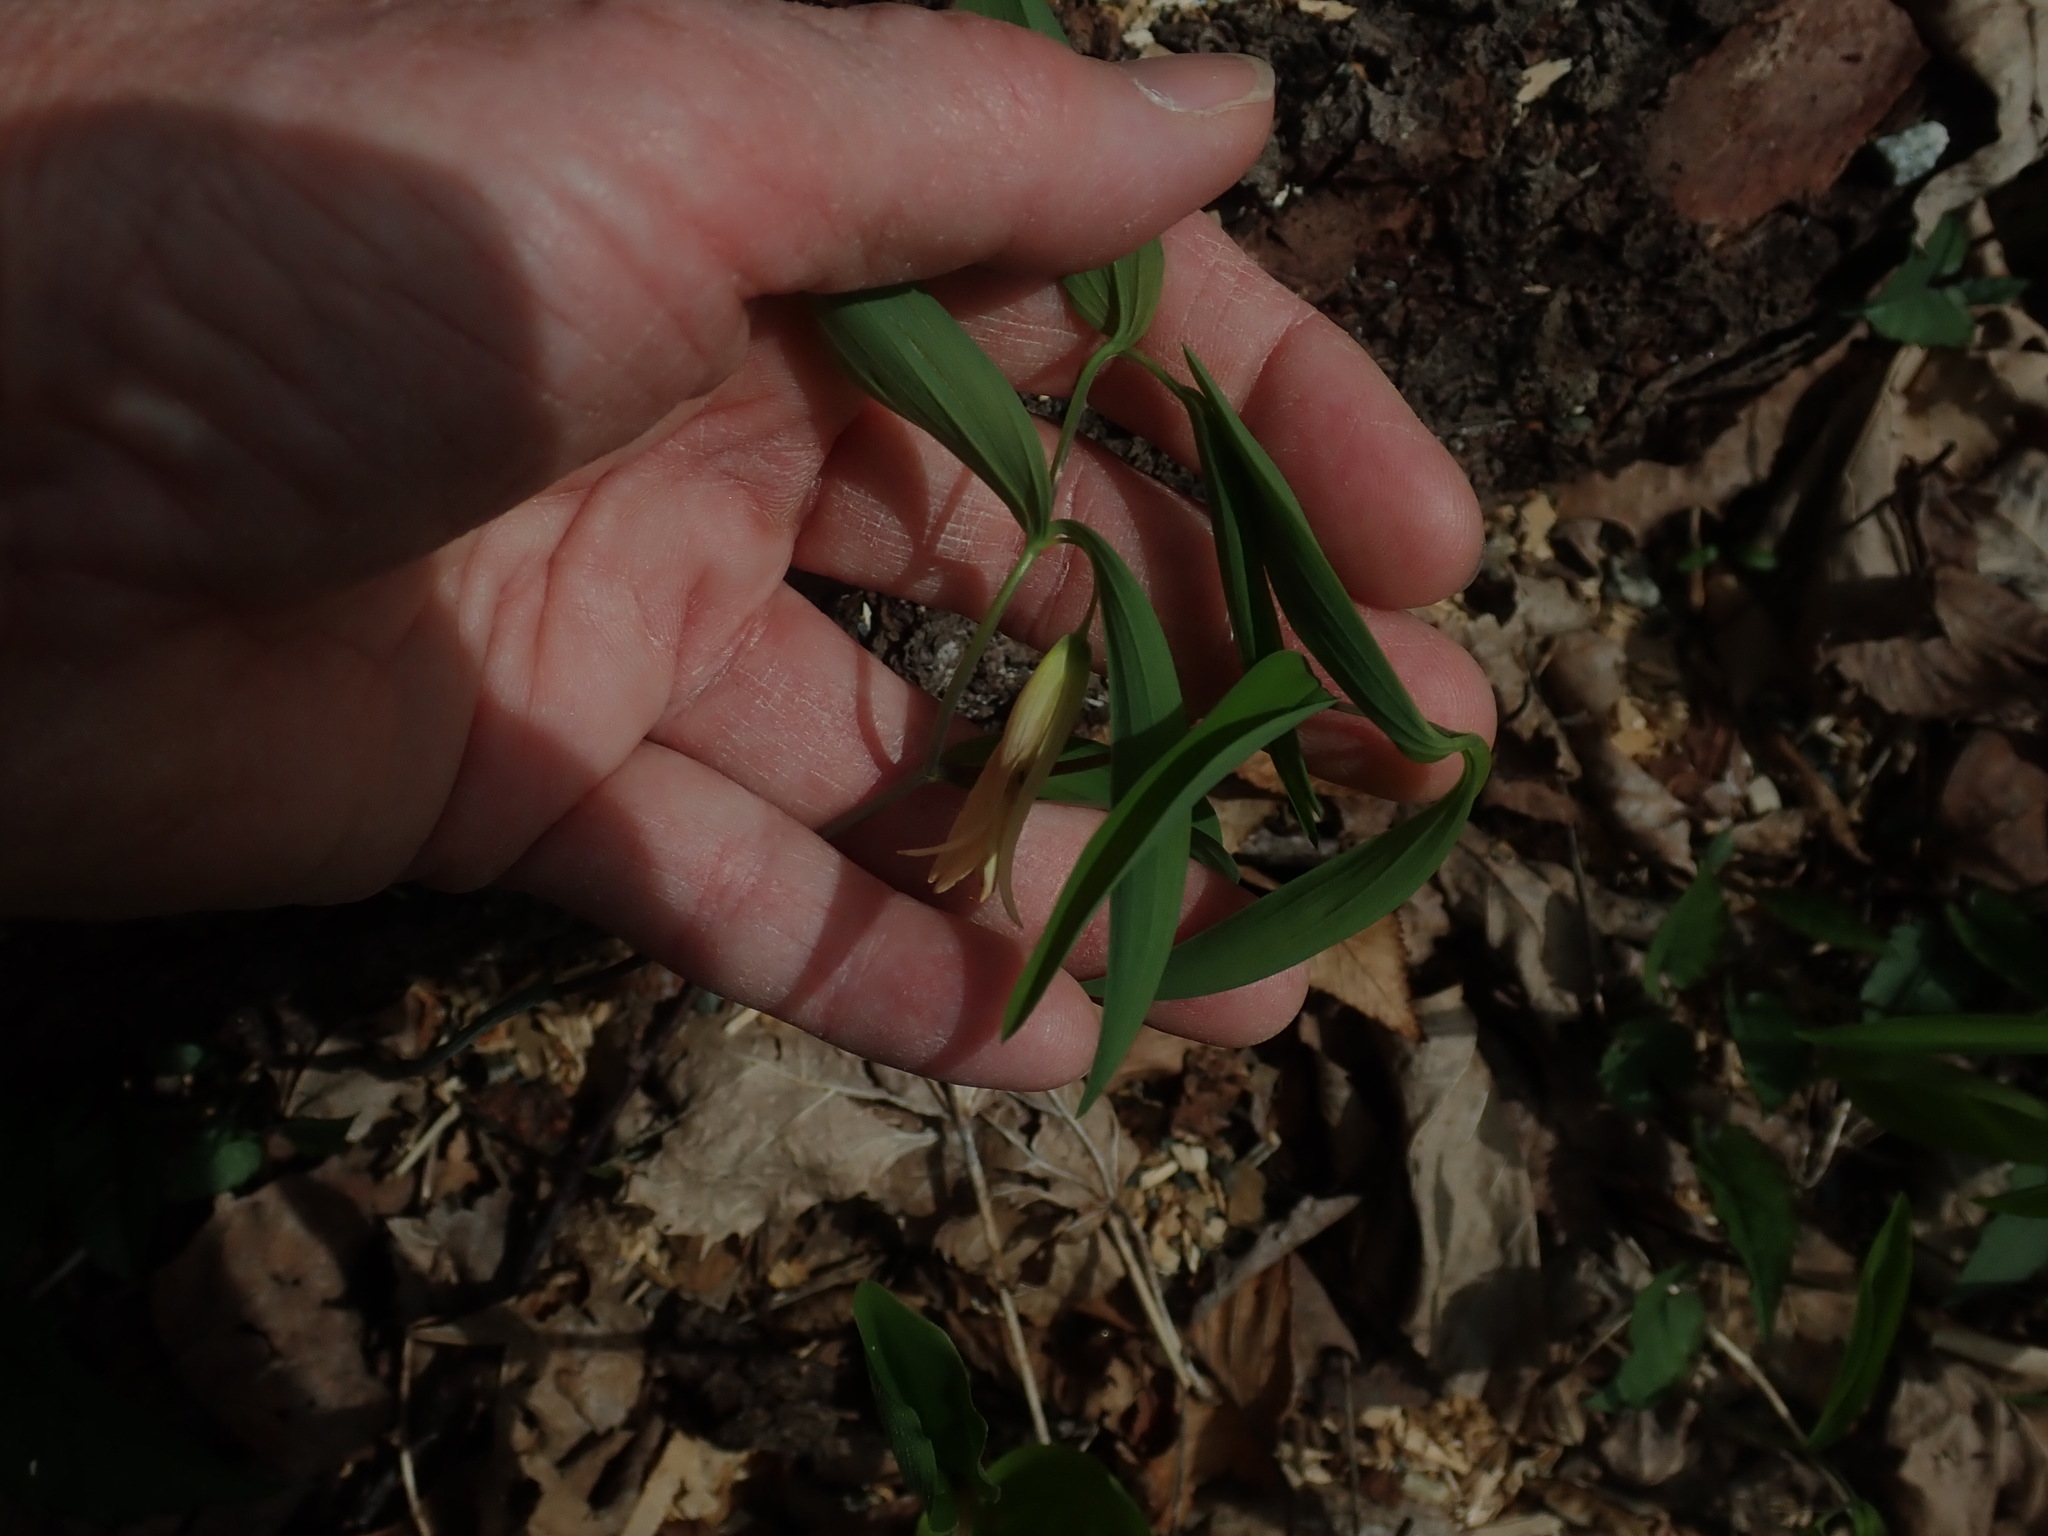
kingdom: Plantae
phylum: Tracheophyta
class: Liliopsida
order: Liliales
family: Colchicaceae
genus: Uvularia
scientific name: Uvularia sessilifolia
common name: Straw-lily
